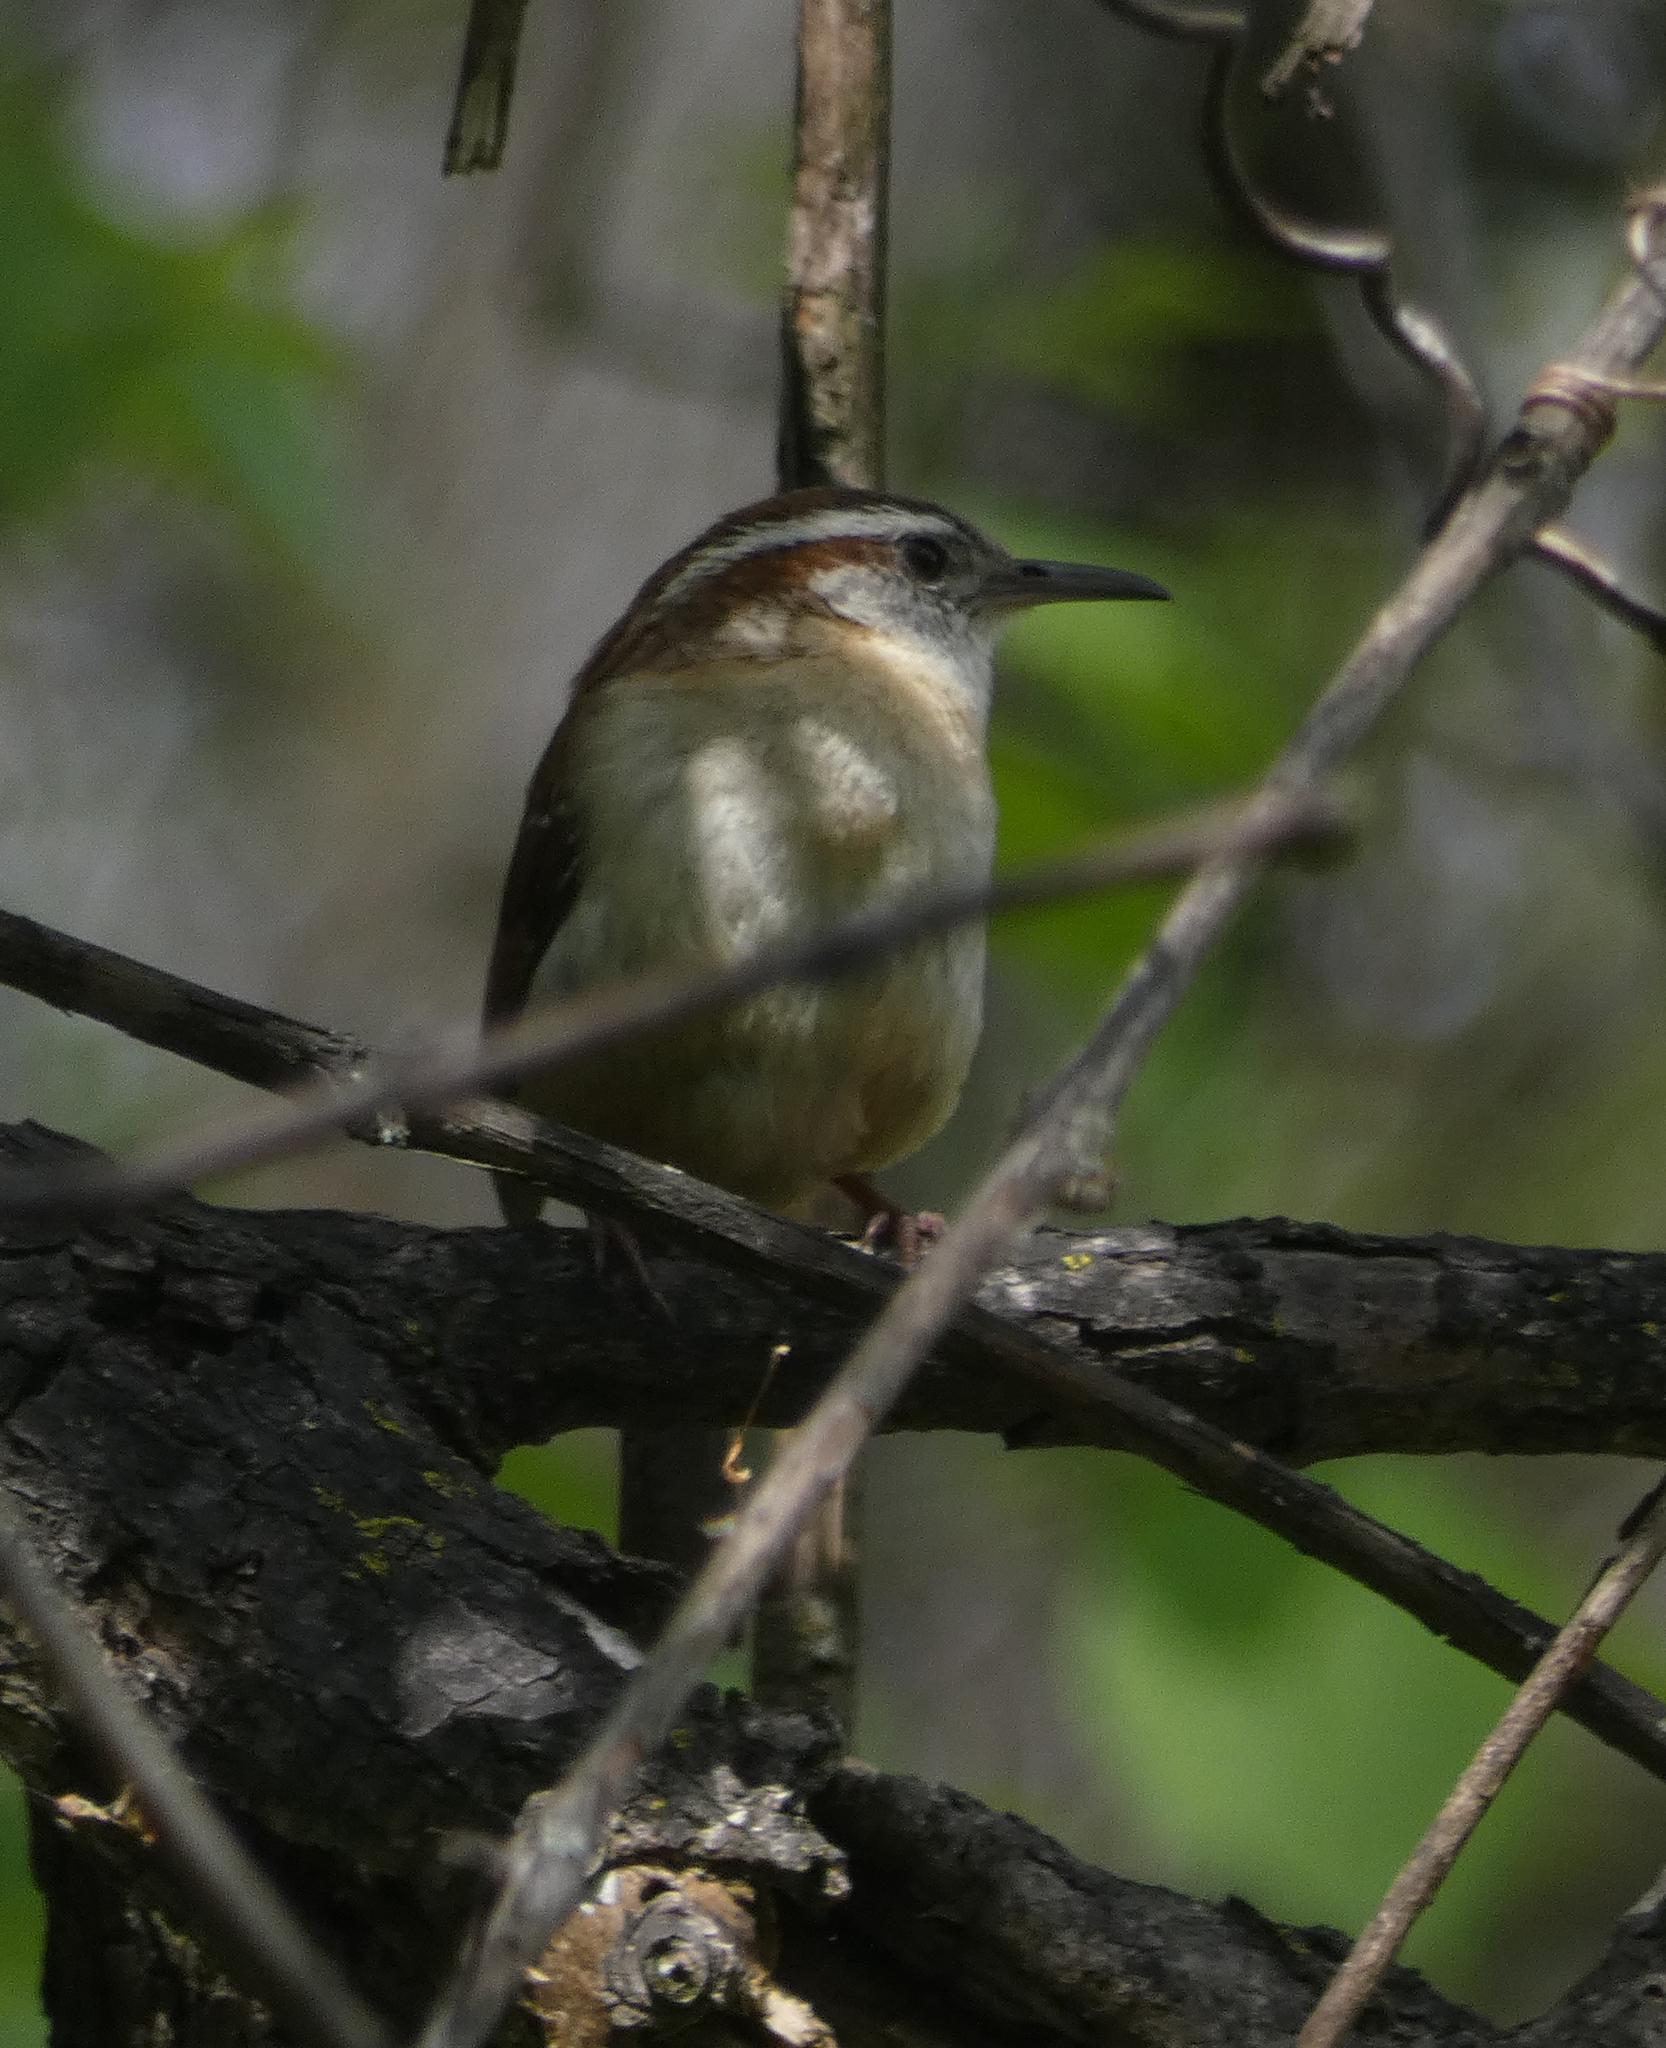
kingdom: Animalia
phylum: Chordata
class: Aves
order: Passeriformes
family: Troglodytidae
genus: Thryothorus
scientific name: Thryothorus ludovicianus
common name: Carolina wren
